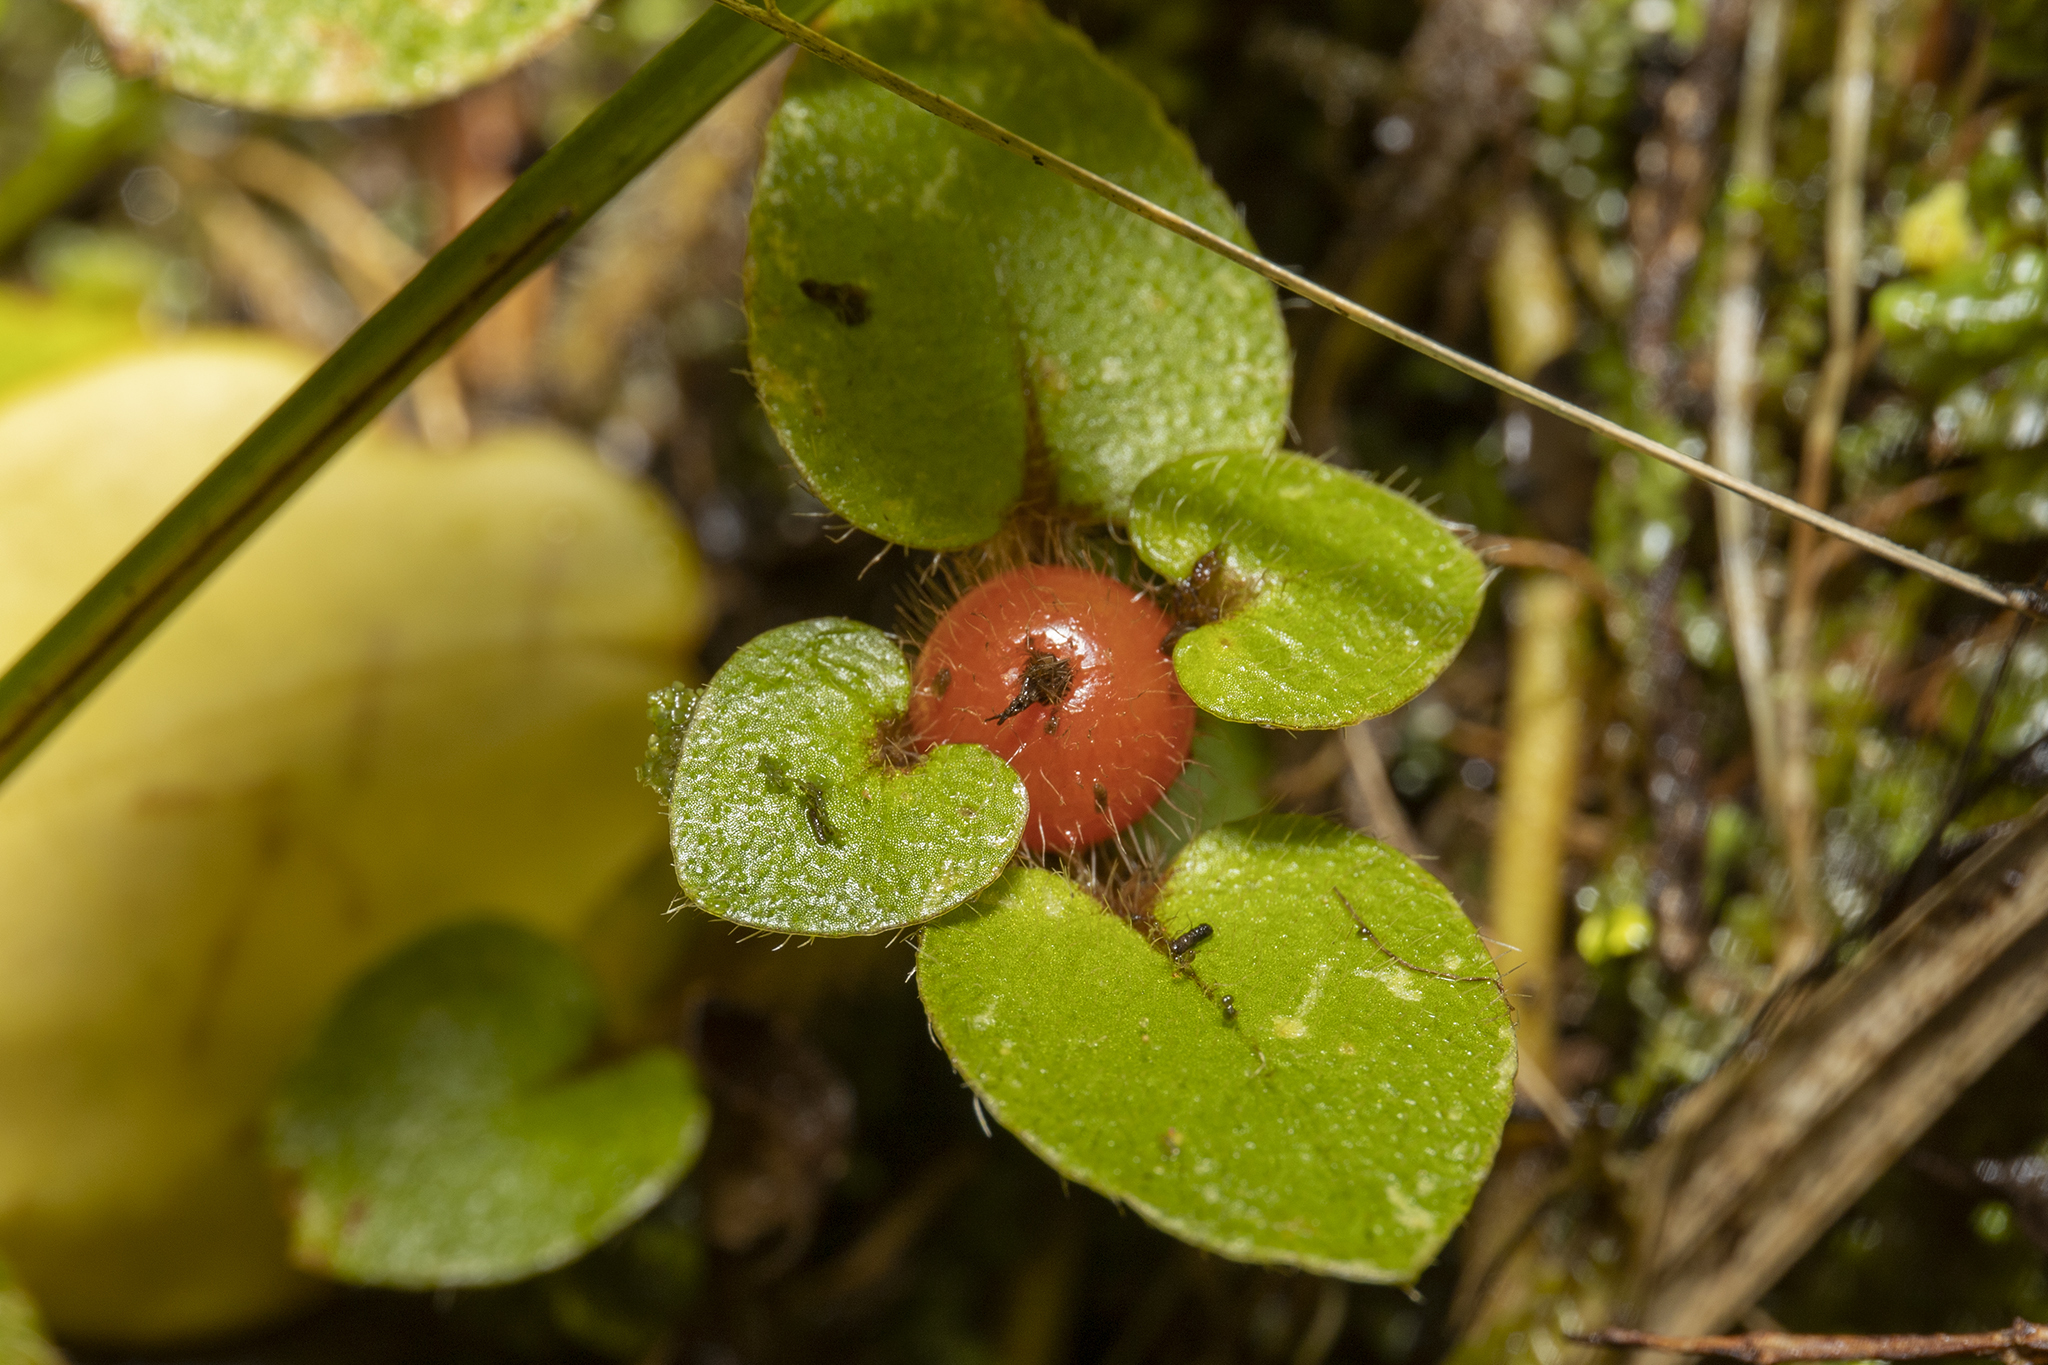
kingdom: Plantae
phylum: Tracheophyta
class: Magnoliopsida
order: Gentianales
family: Rubiaceae
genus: Nertera
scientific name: Nertera villosa
